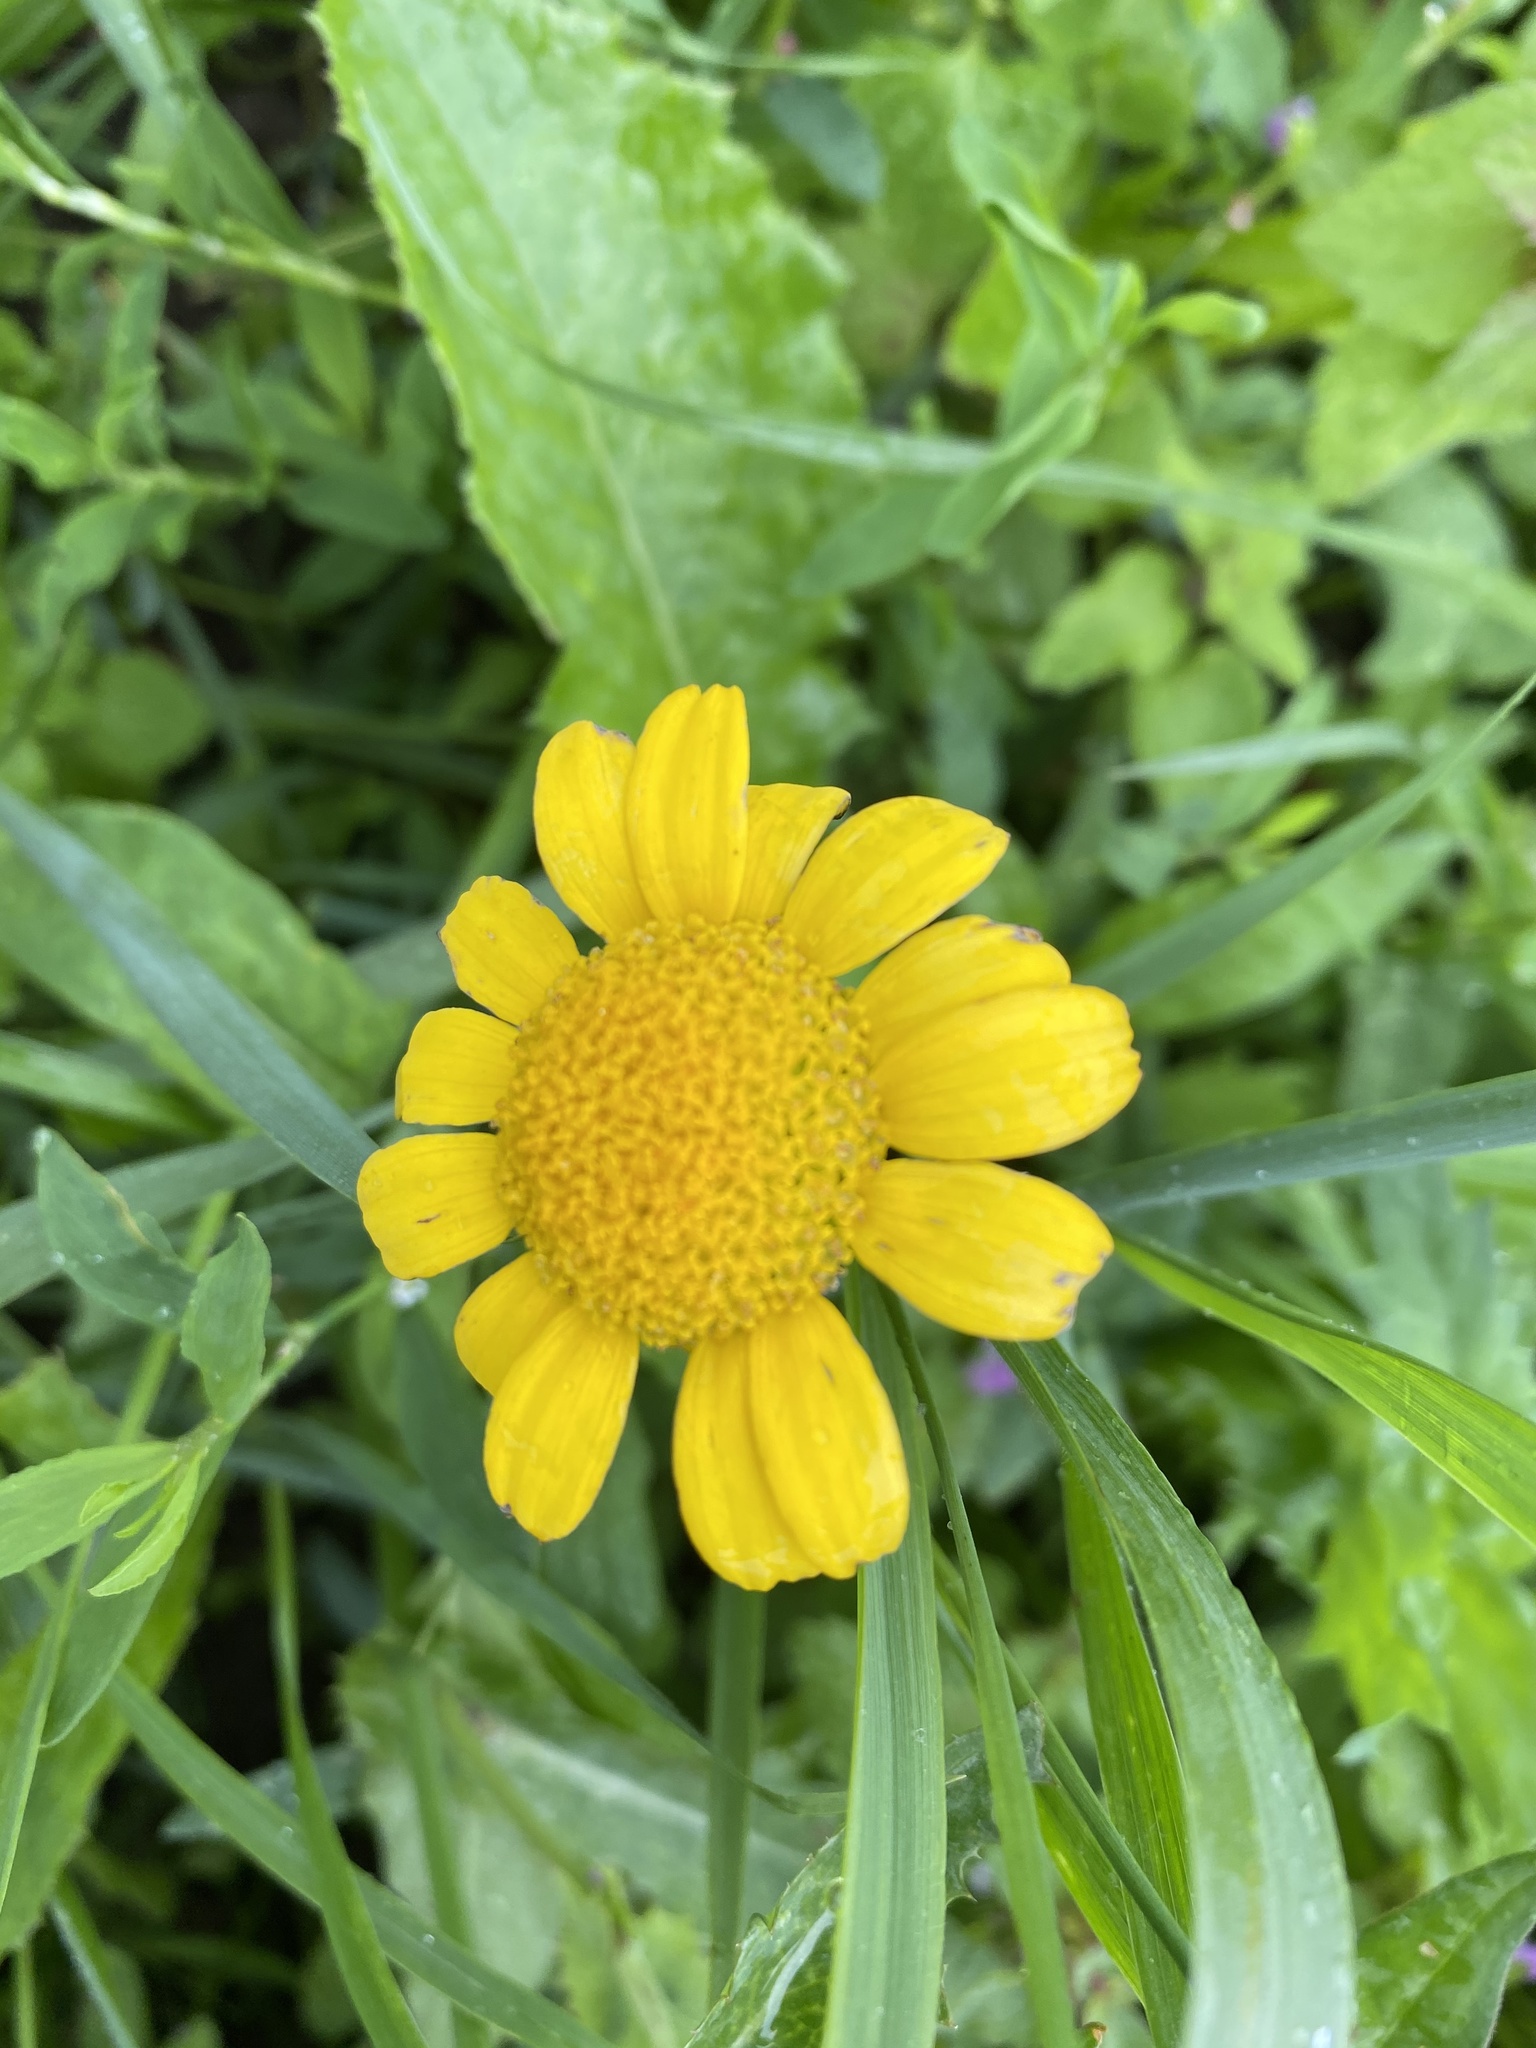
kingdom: Plantae
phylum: Tracheophyta
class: Magnoliopsida
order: Asterales
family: Asteraceae
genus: Glebionis
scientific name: Glebionis segetum
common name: Corndaisy
